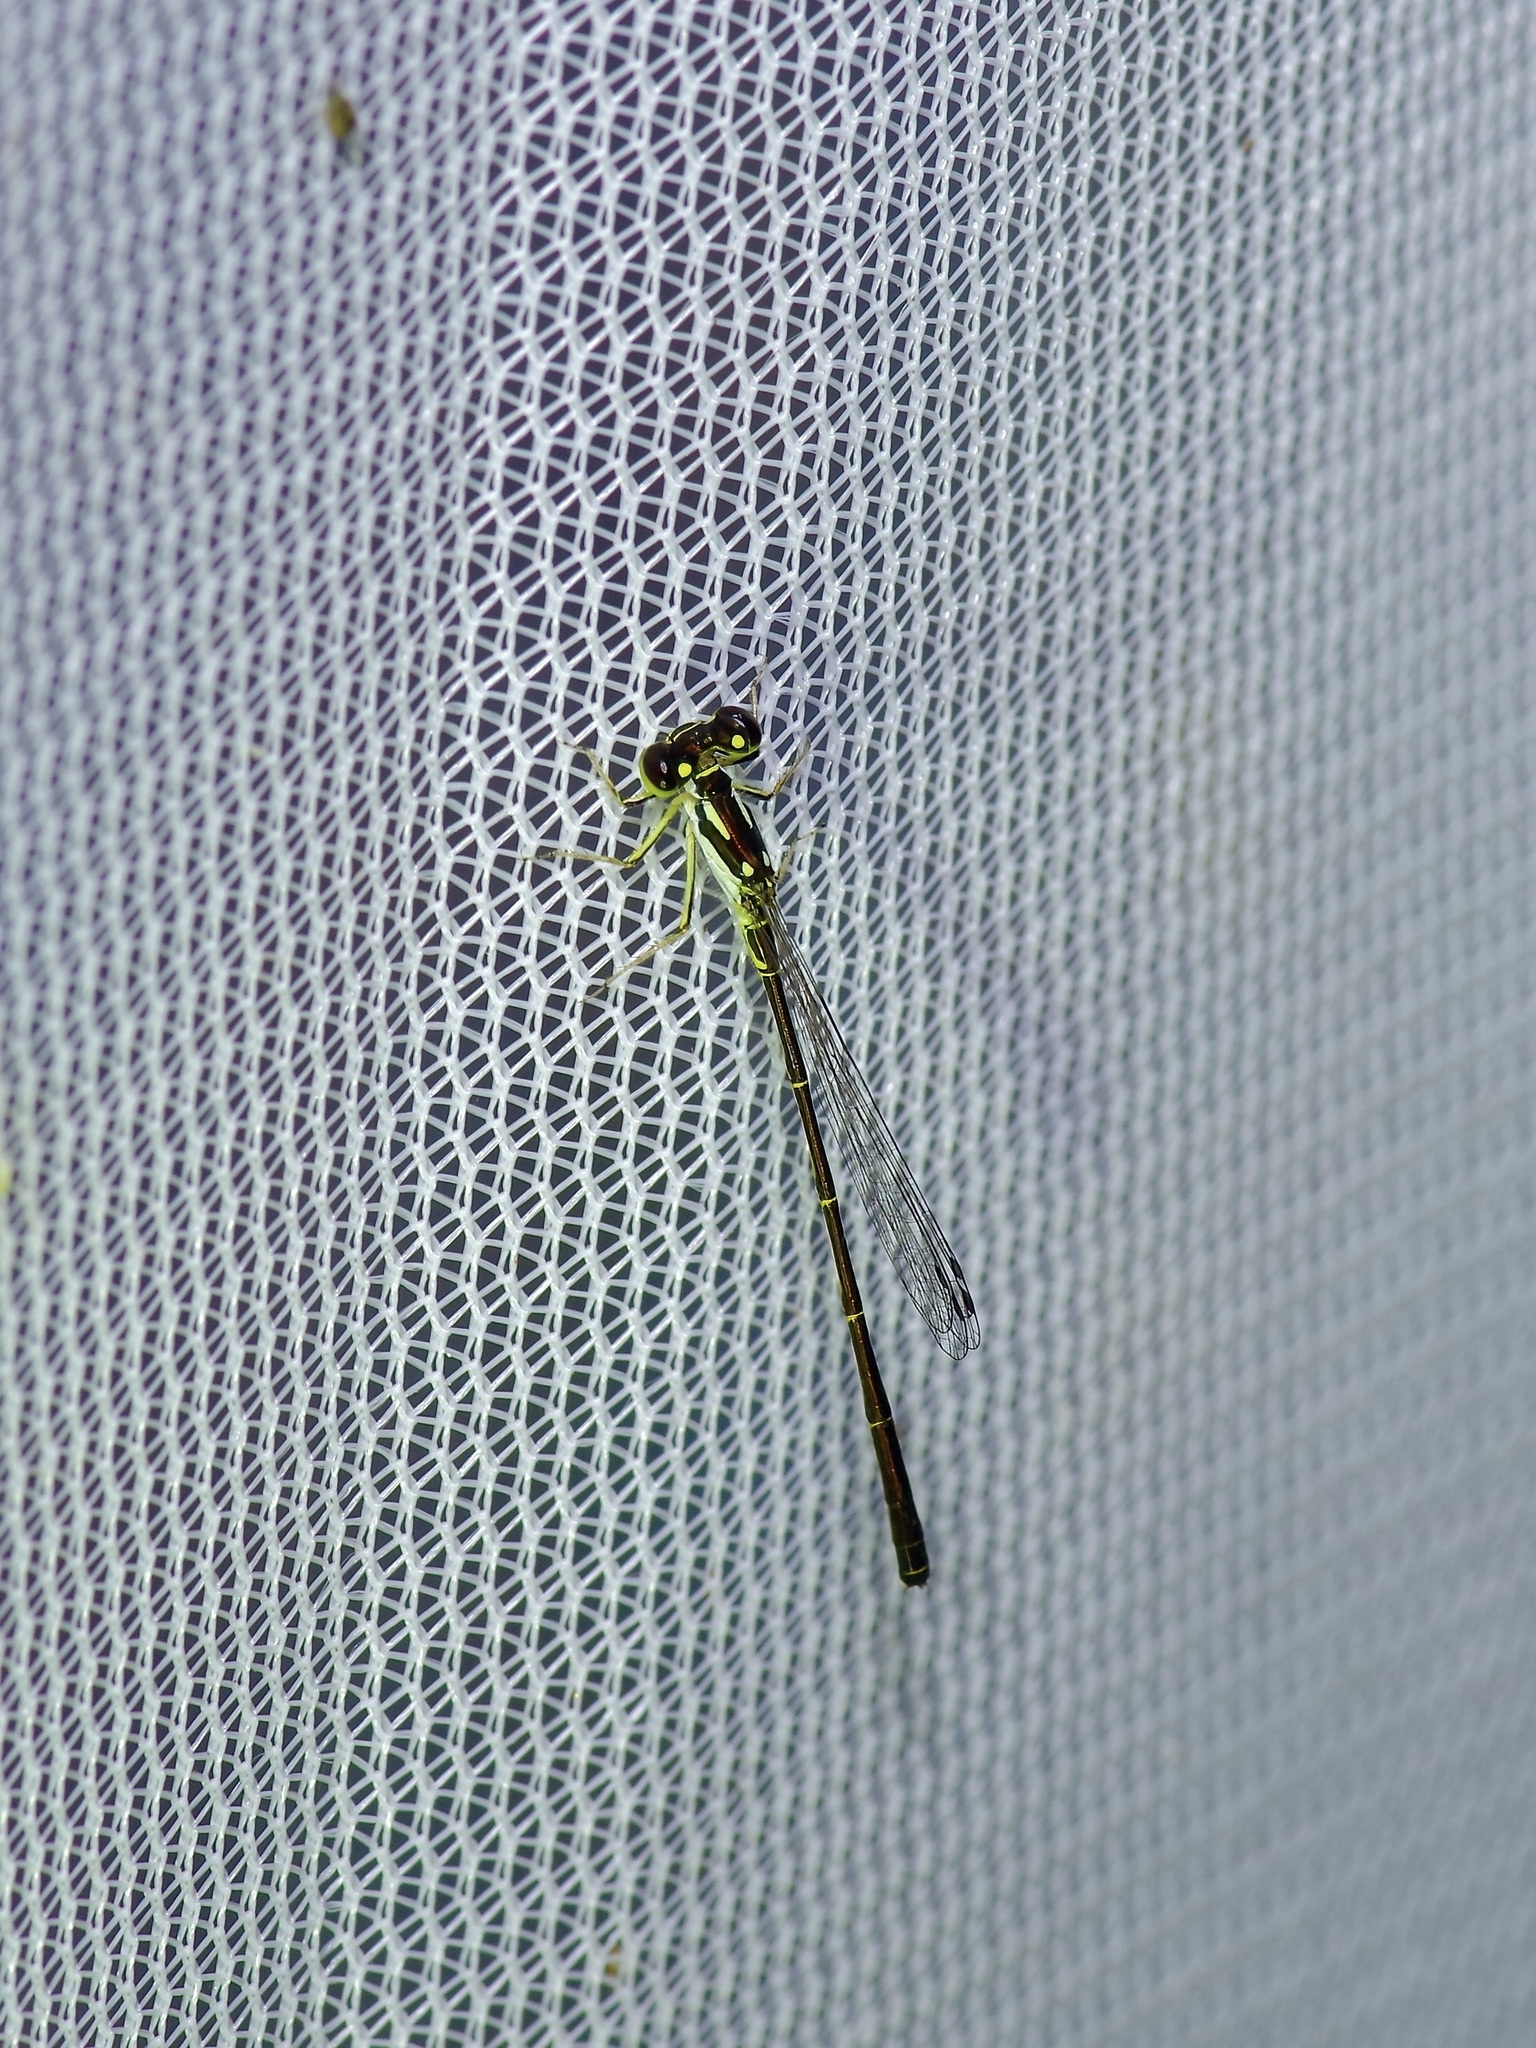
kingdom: Animalia
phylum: Arthropoda
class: Insecta
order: Odonata
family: Coenagrionidae
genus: Ischnura
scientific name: Ischnura posita
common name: Fragile forktail
